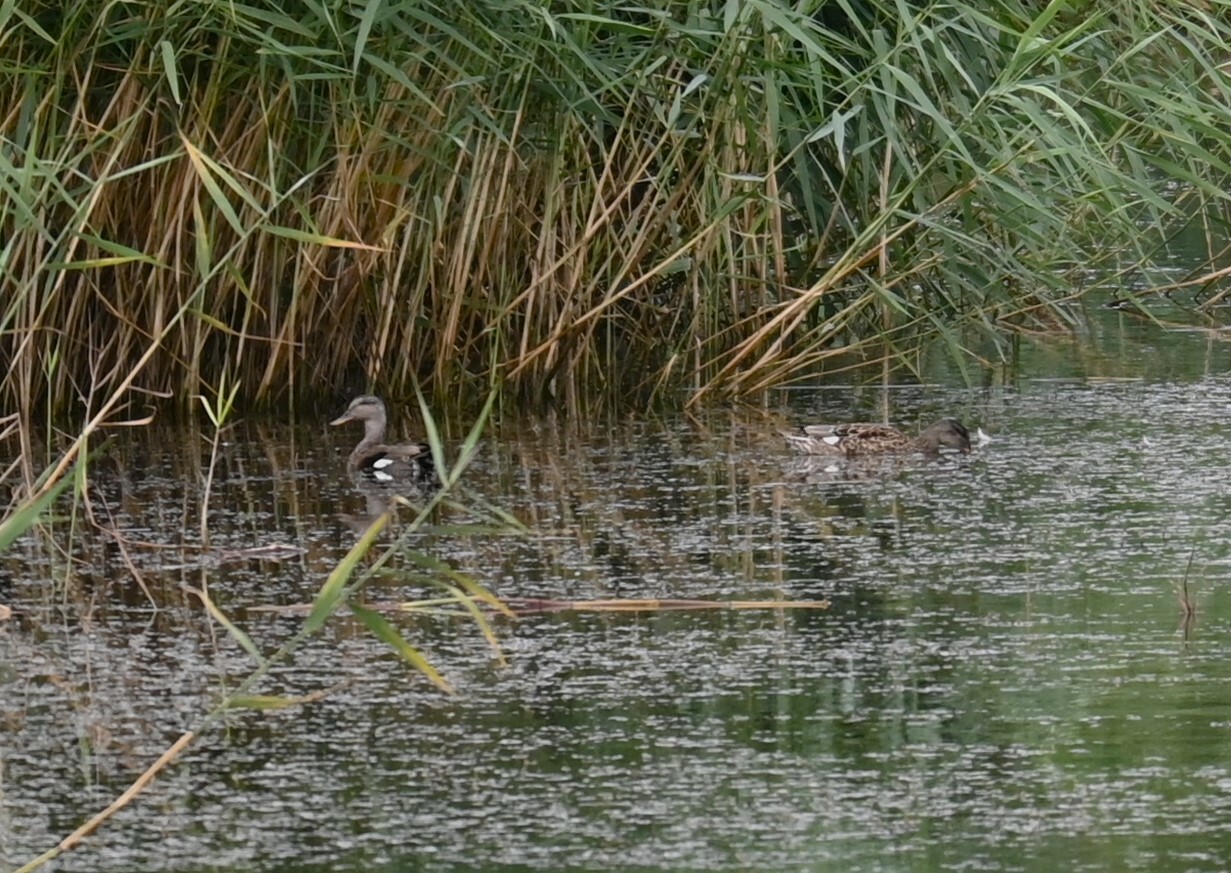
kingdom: Animalia
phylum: Chordata
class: Aves
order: Anseriformes
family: Anatidae
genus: Mareca
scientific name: Mareca strepera
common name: Gadwall
